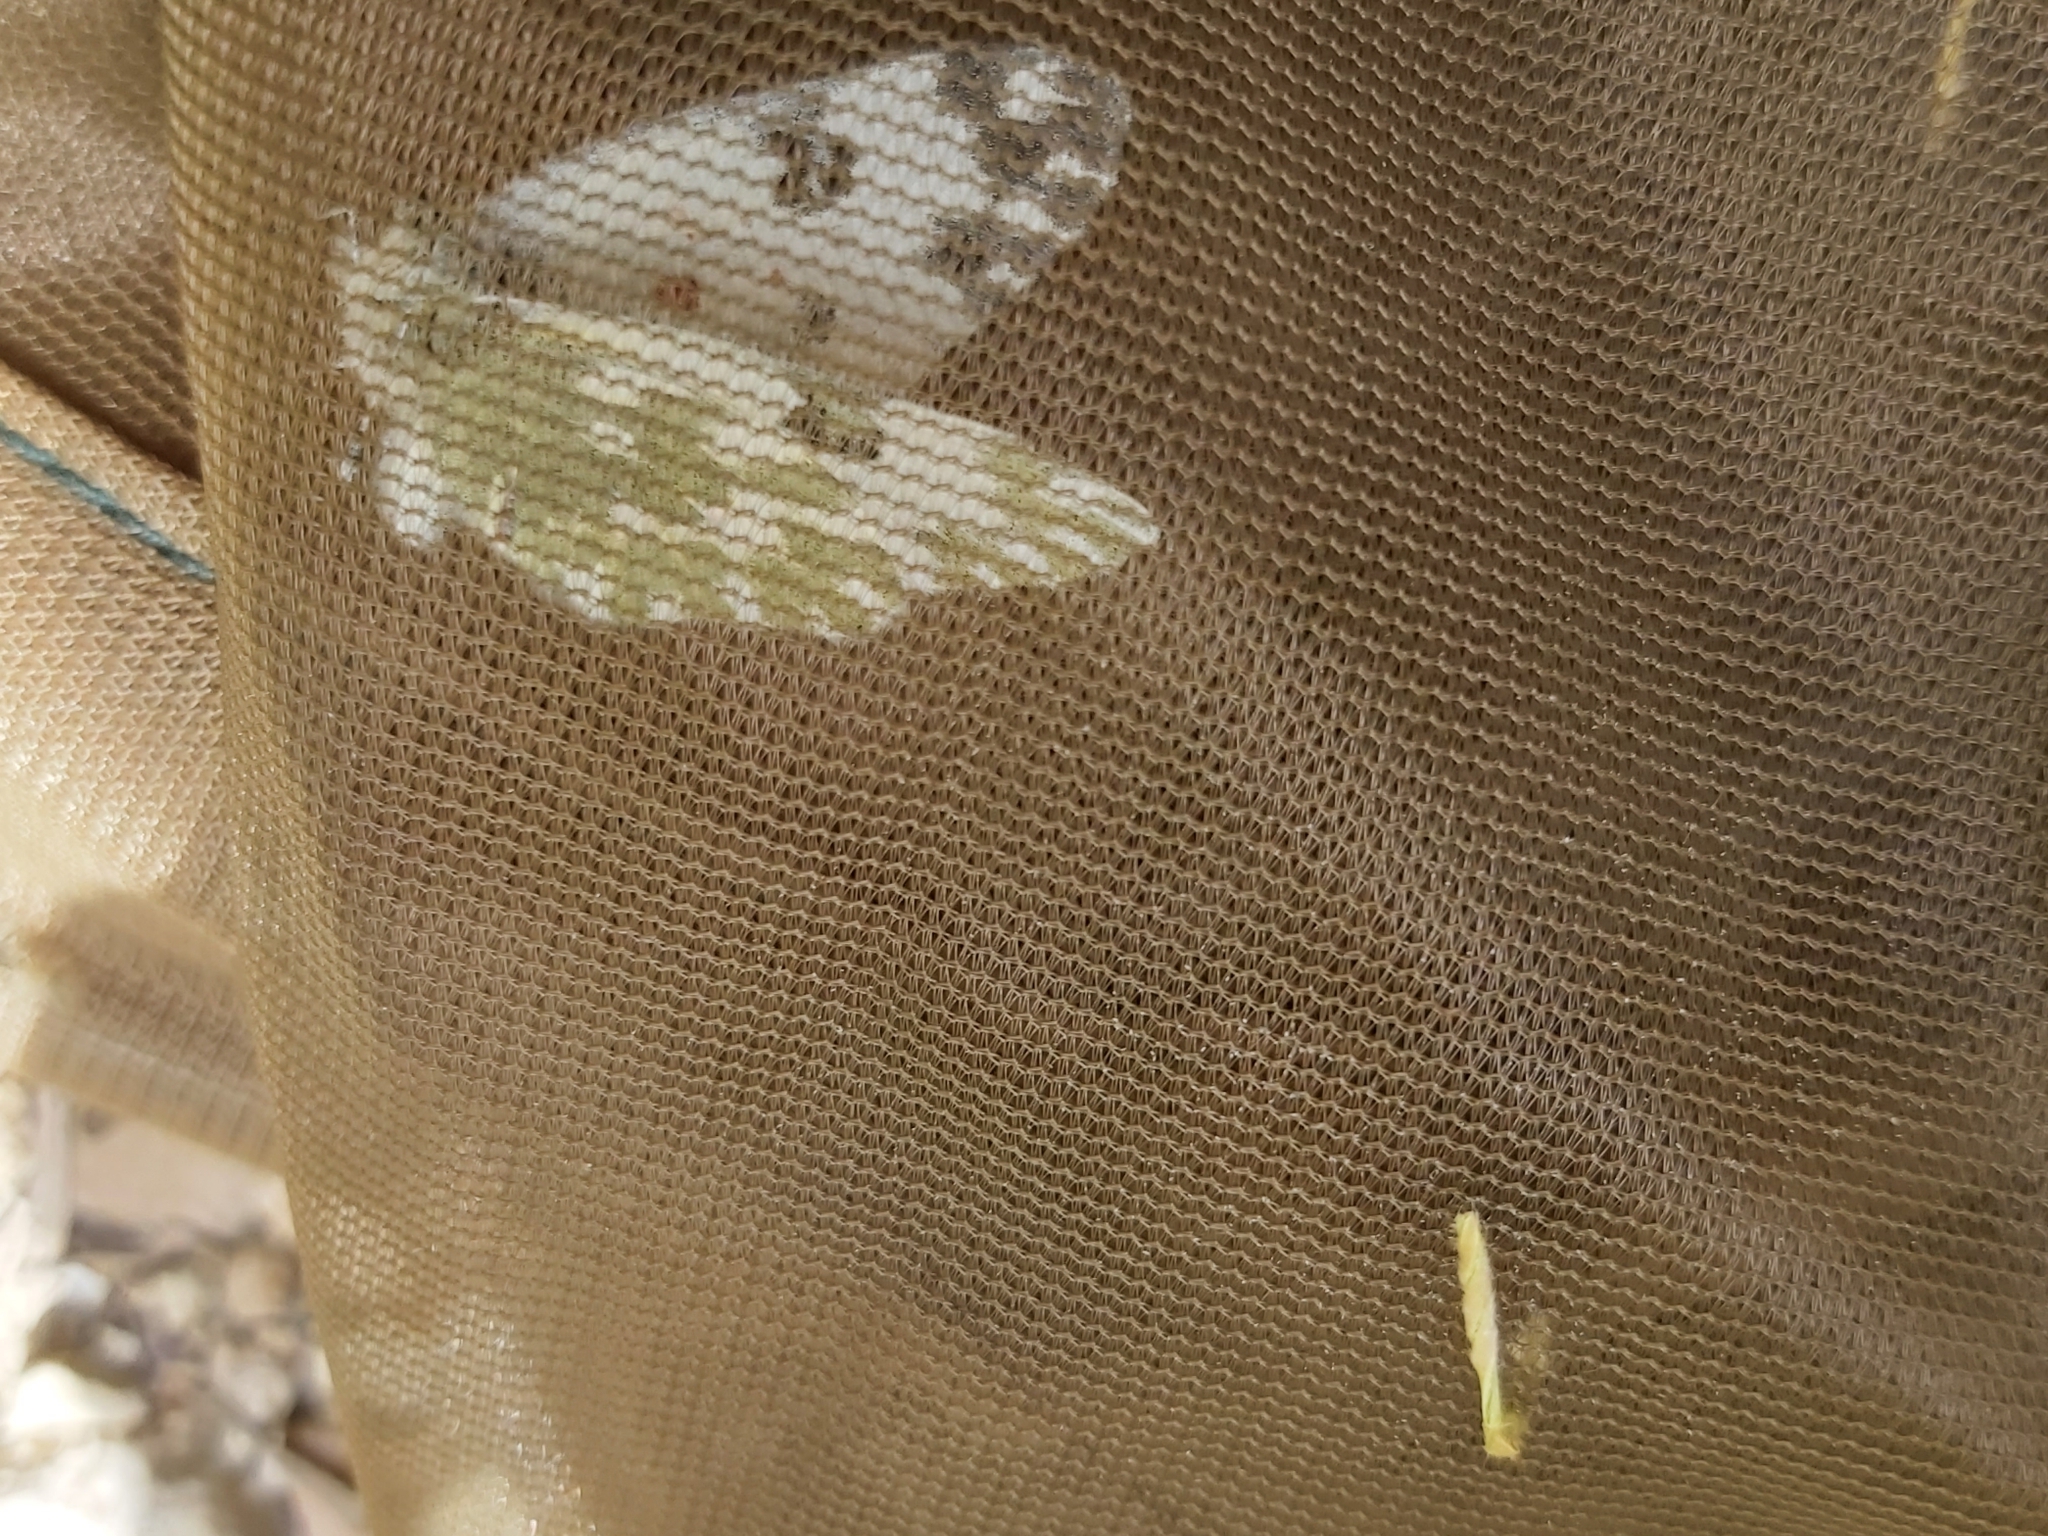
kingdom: Animalia
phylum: Arthropoda
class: Insecta
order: Lepidoptera
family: Pieridae
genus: Pontia
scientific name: Pontia edusa
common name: Eastern bath white
